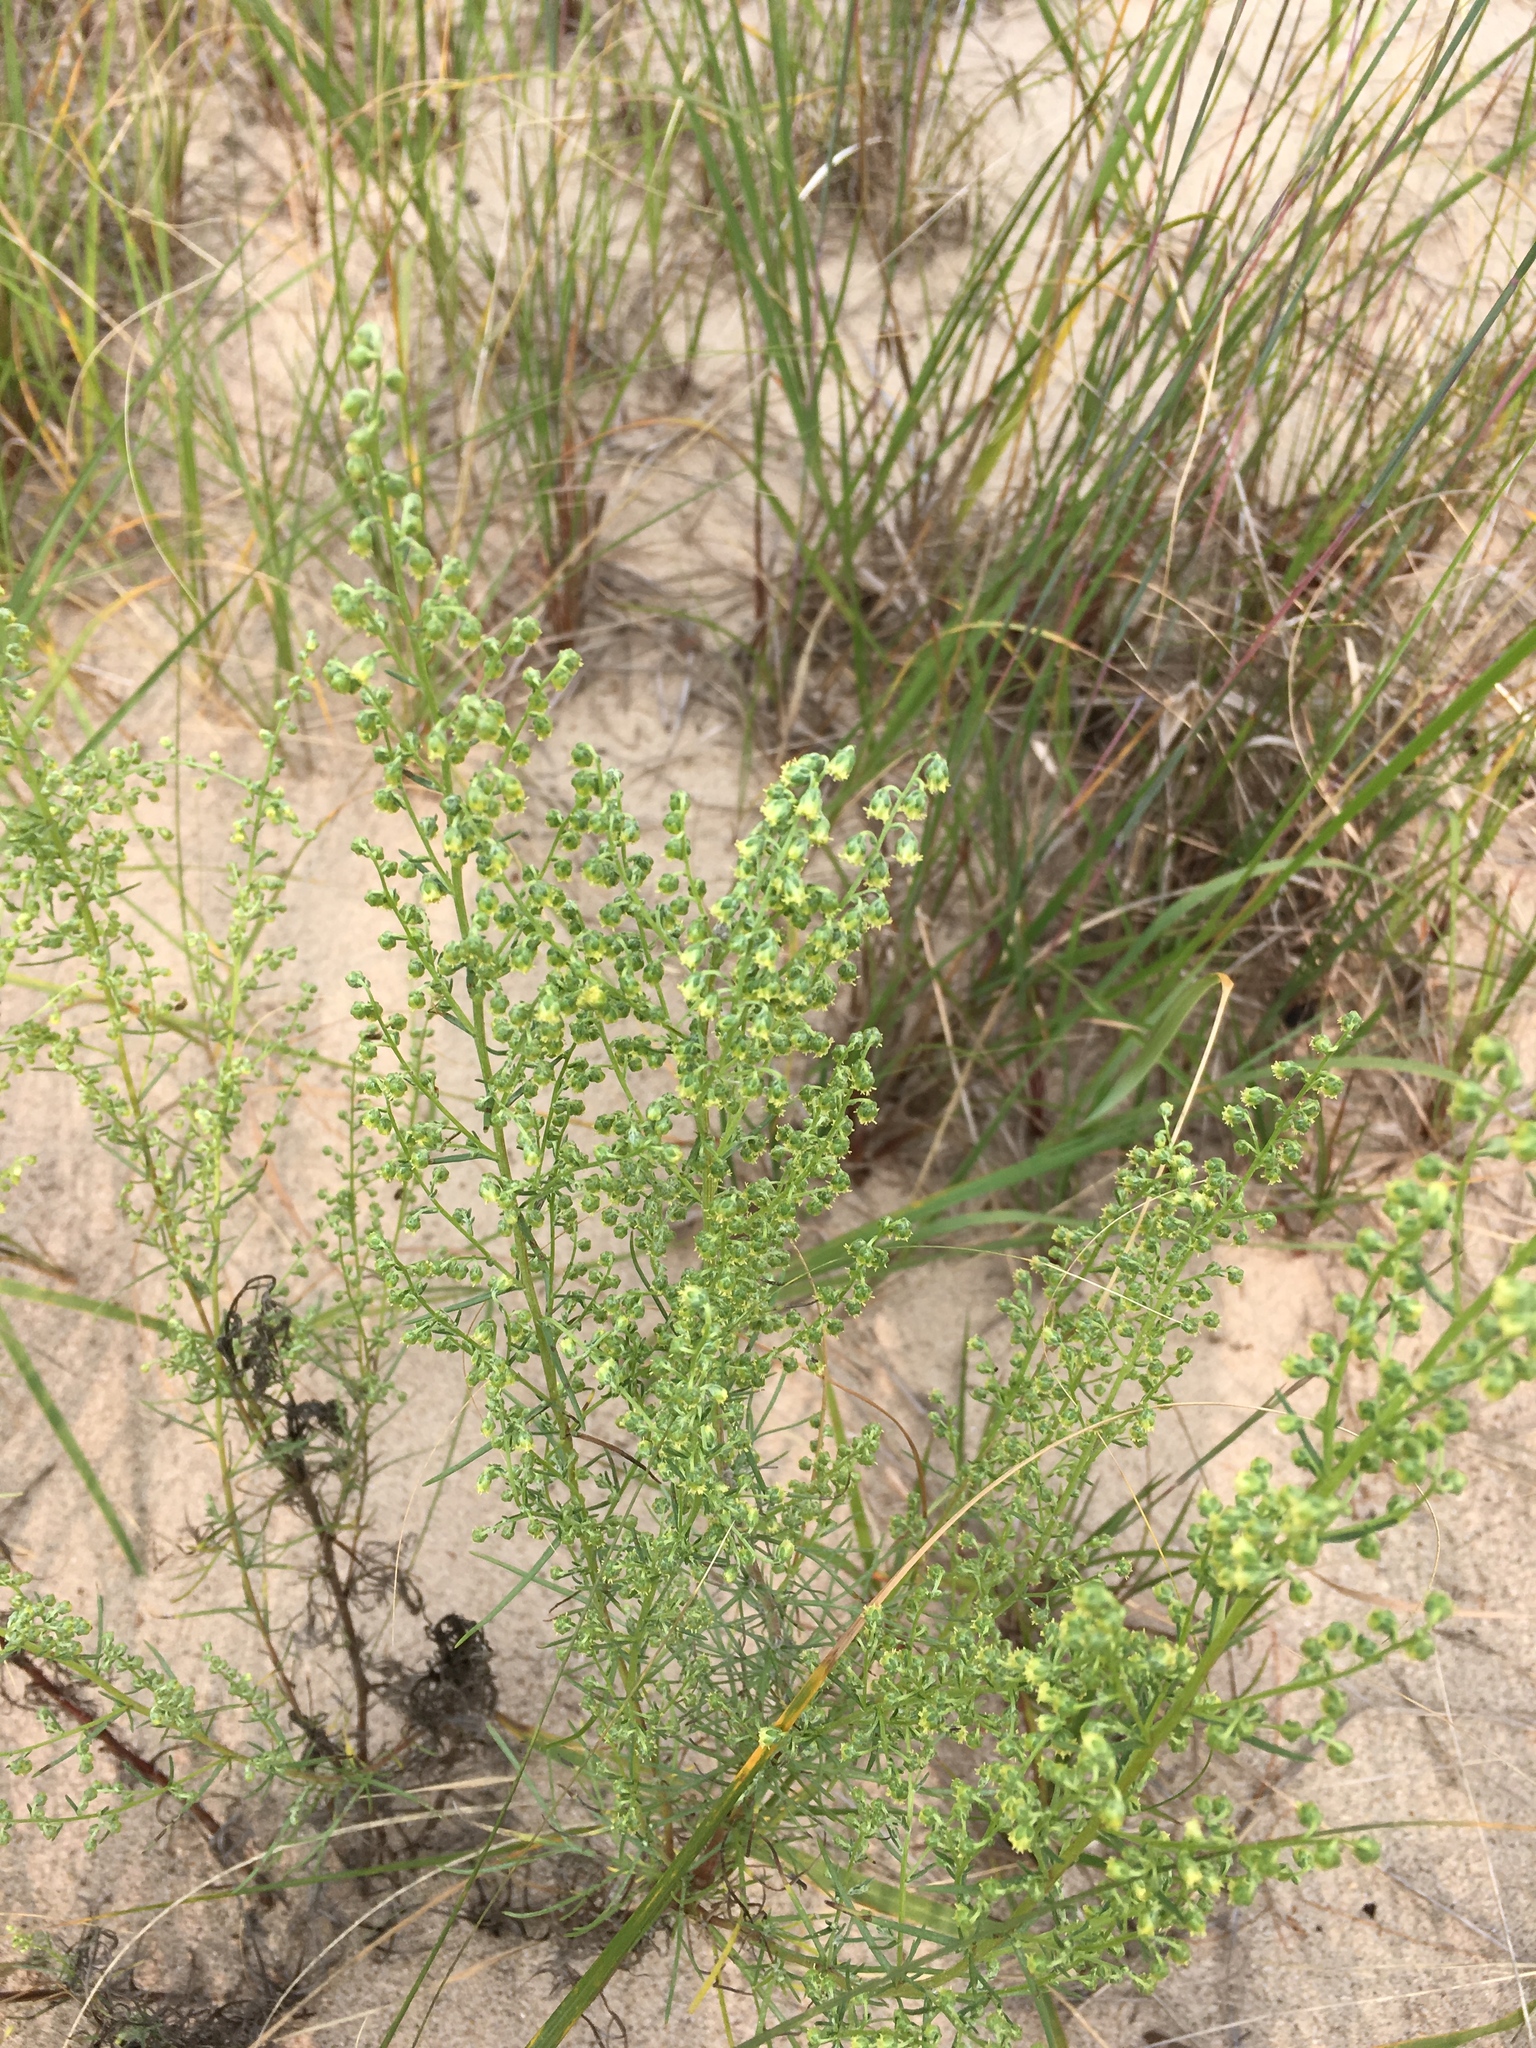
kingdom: Plantae
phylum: Tracheophyta
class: Magnoliopsida
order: Asterales
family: Asteraceae
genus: Artemisia
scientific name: Artemisia campestris
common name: Field wormwood
